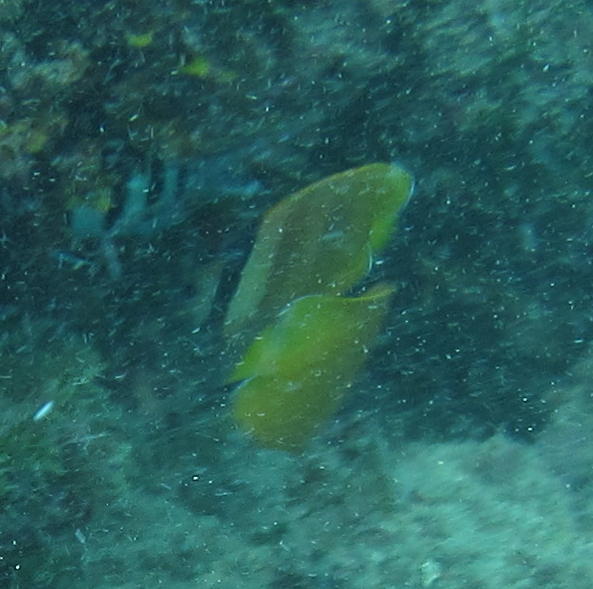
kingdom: Animalia
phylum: Chordata
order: Perciformes
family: Chaetodontidae
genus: Chaetodon
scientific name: Chaetodon kleinii
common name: Klein's butterflyfish
